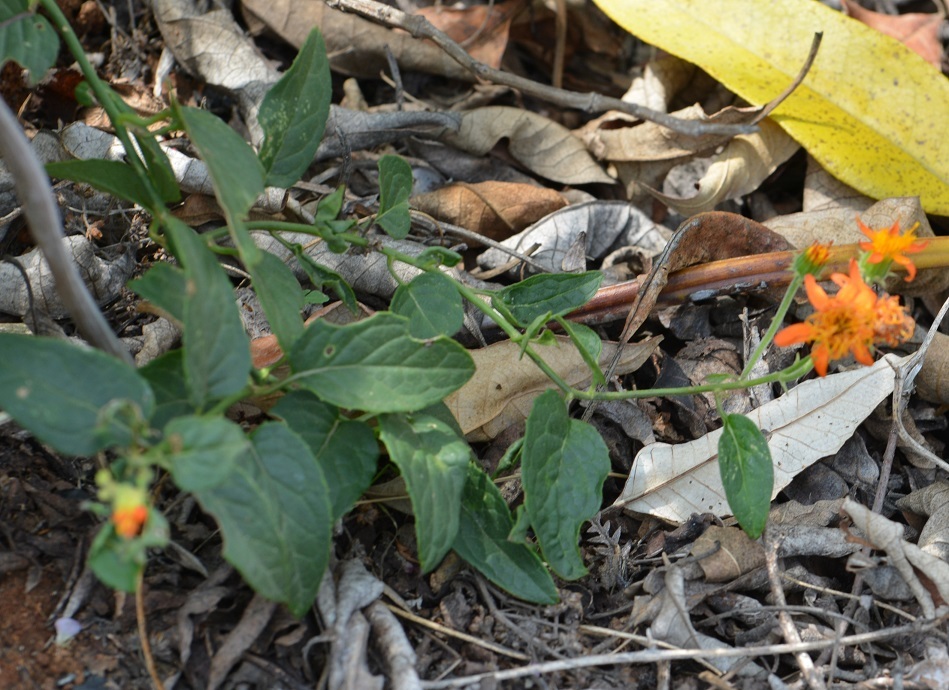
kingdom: Plantae
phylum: Tracheophyta
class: Magnoliopsida
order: Asterales
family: Asteraceae
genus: Pseudogynoxys
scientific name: Pseudogynoxys haenkei
